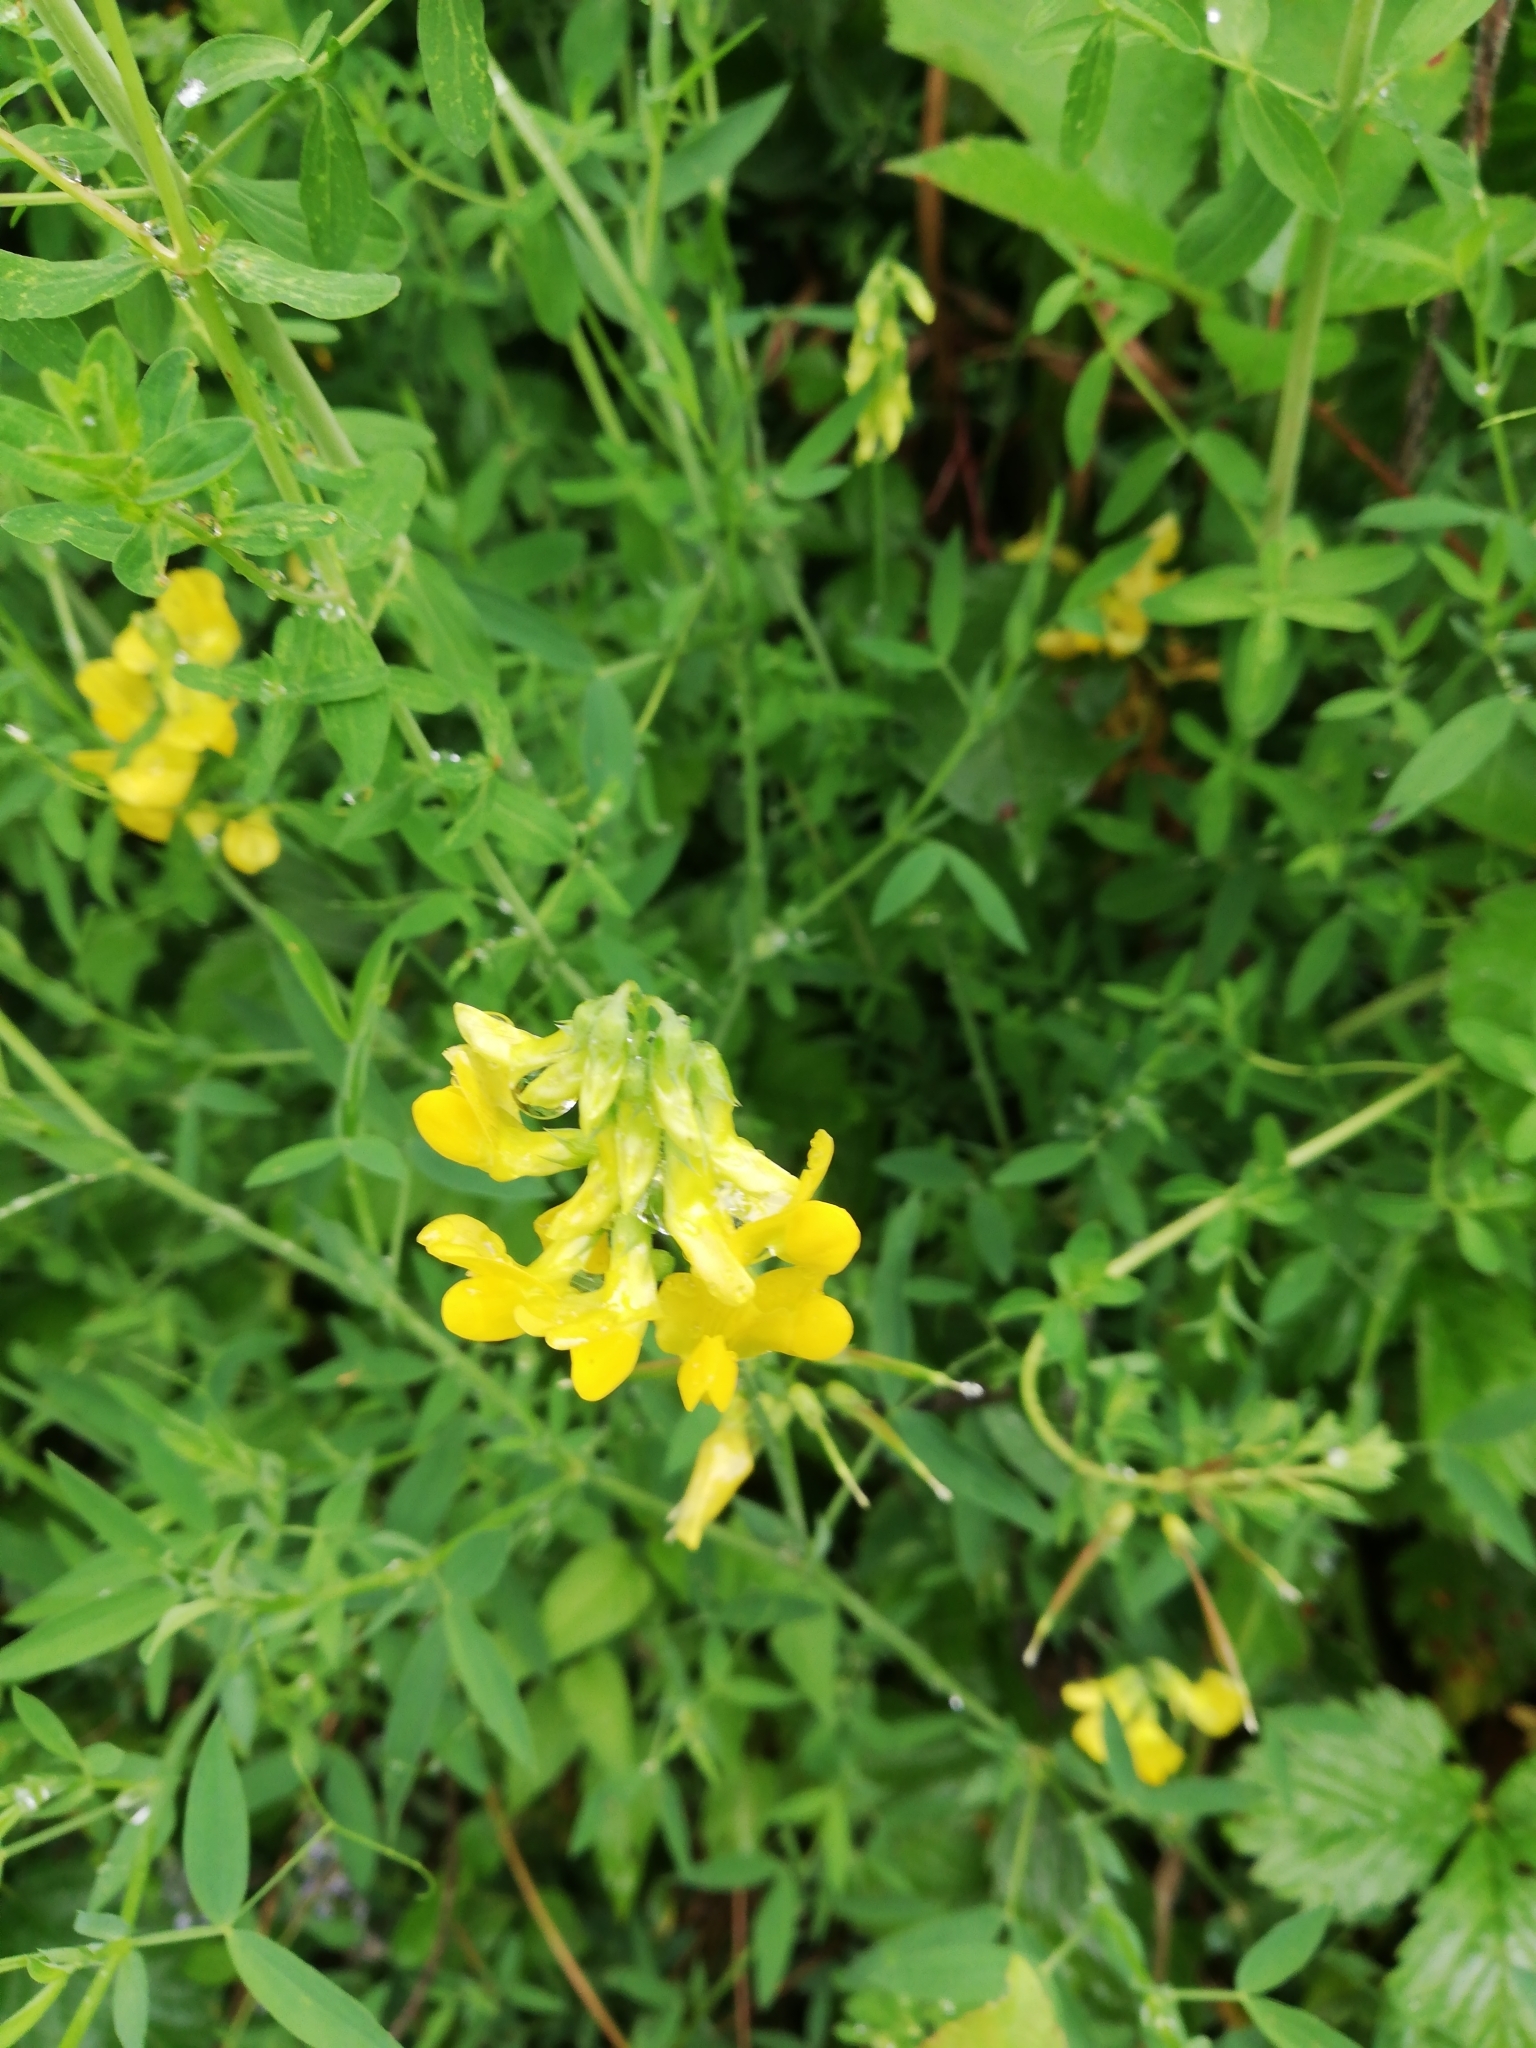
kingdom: Plantae
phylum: Tracheophyta
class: Magnoliopsida
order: Fabales
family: Fabaceae
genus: Lathyrus
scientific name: Lathyrus pratensis
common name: Meadow vetchling
